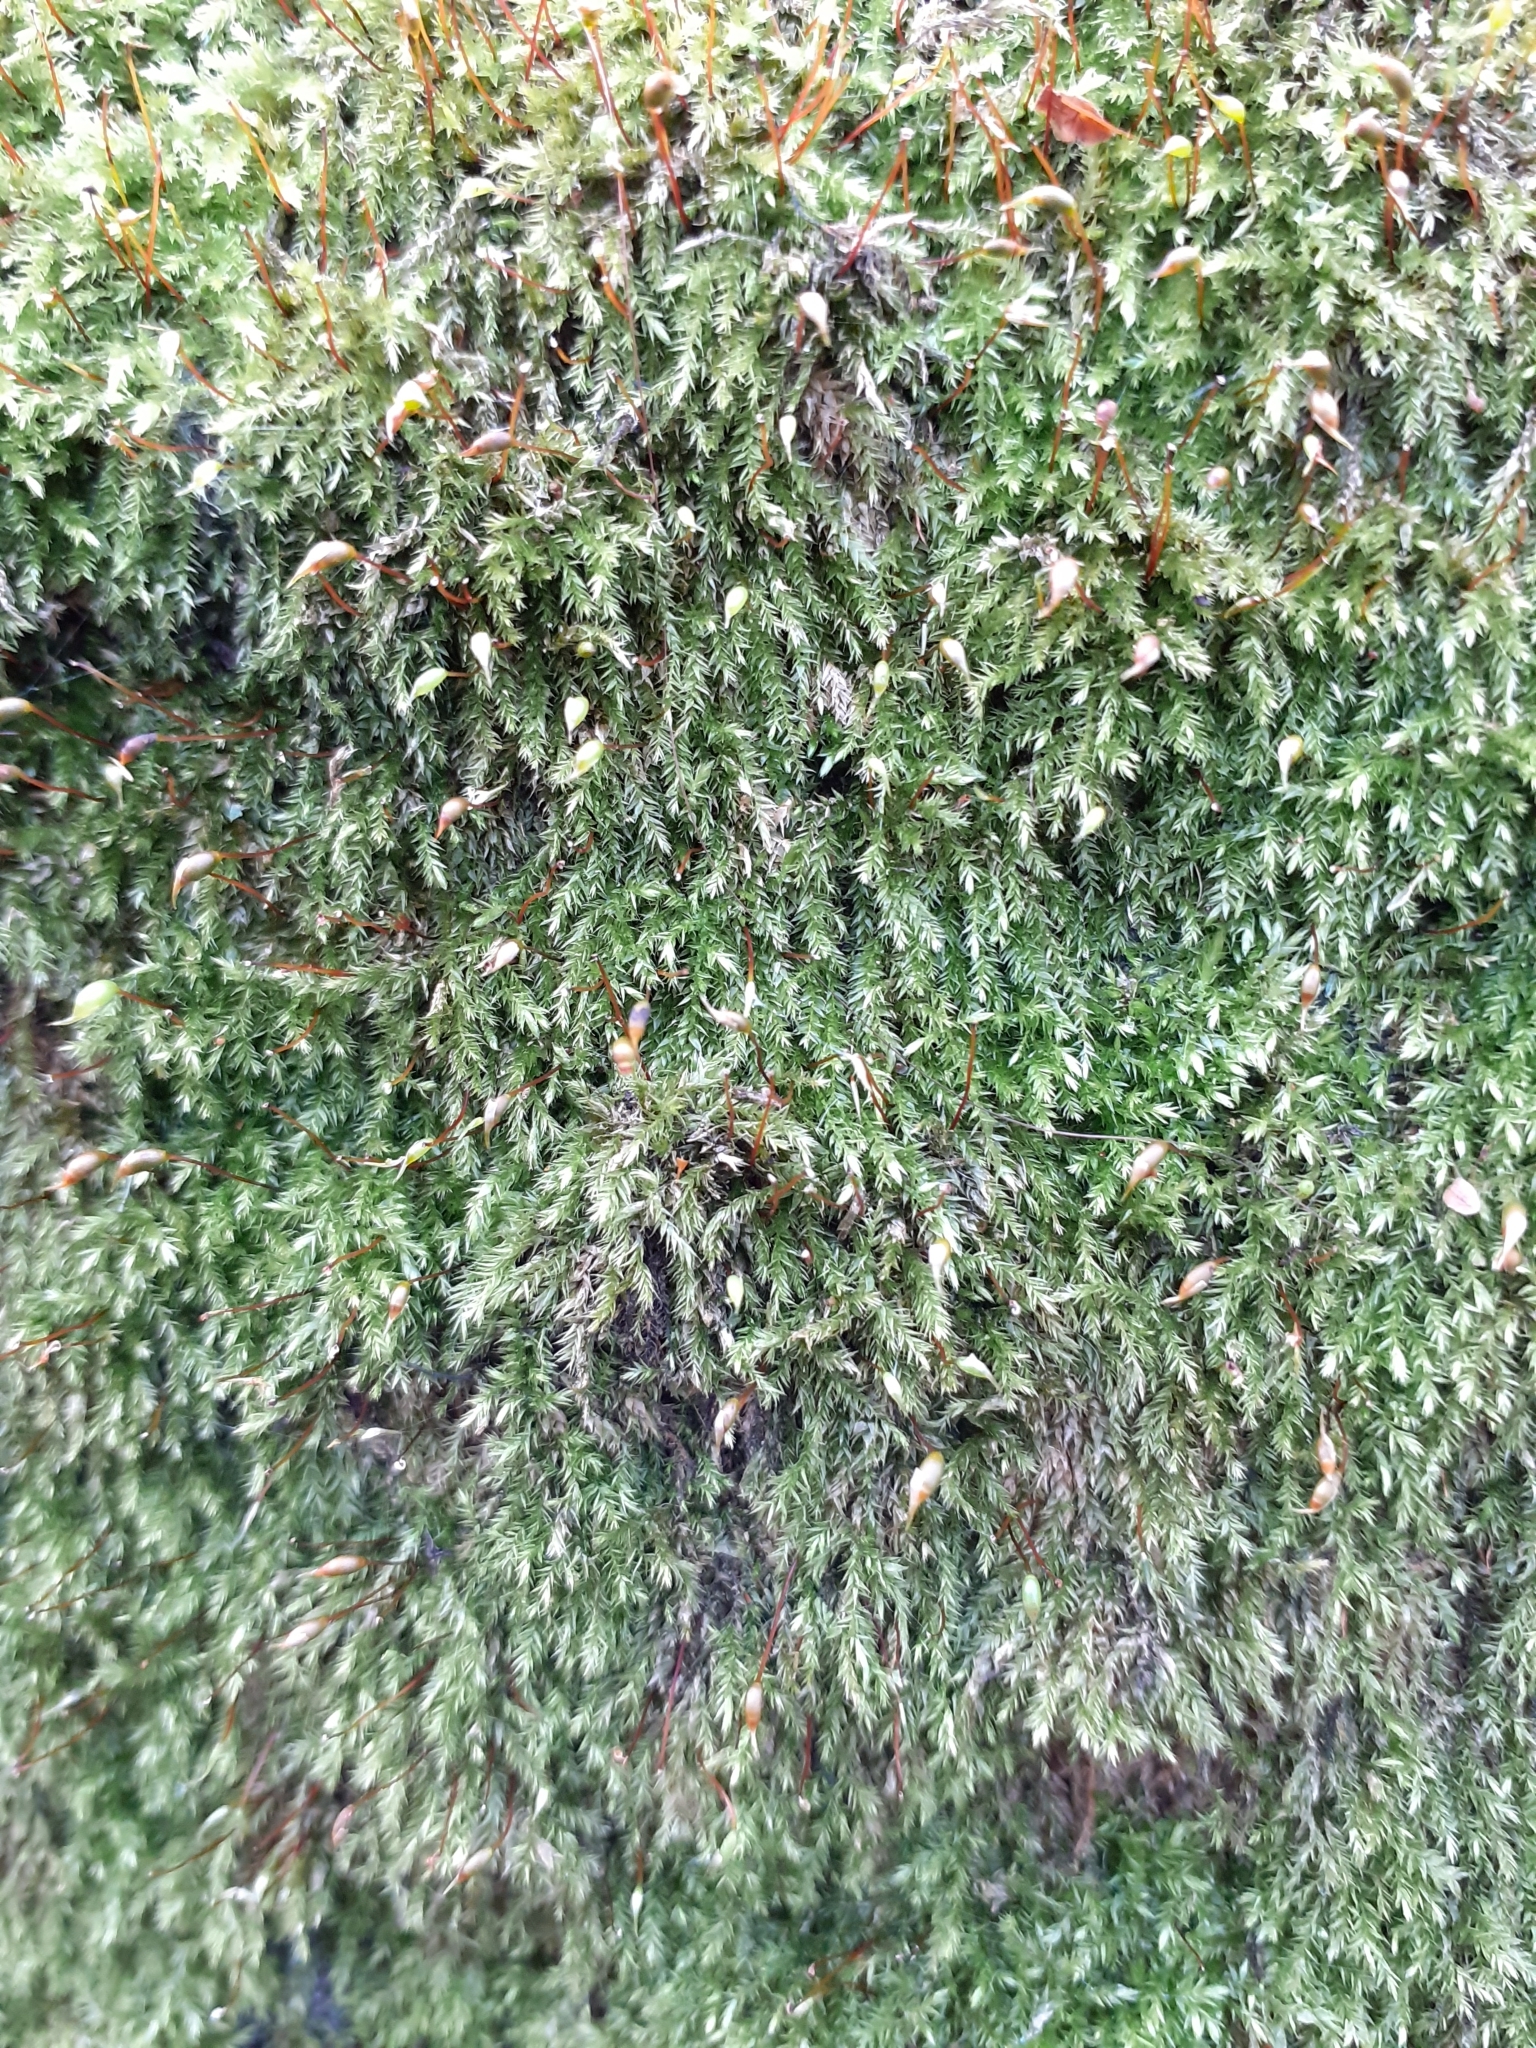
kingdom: Plantae
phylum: Bryophyta
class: Bryopsida
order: Hypnales
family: Brachytheciaceae
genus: Brachythecium
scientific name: Brachythecium rutabulum
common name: Rough-stalked feather-moss
